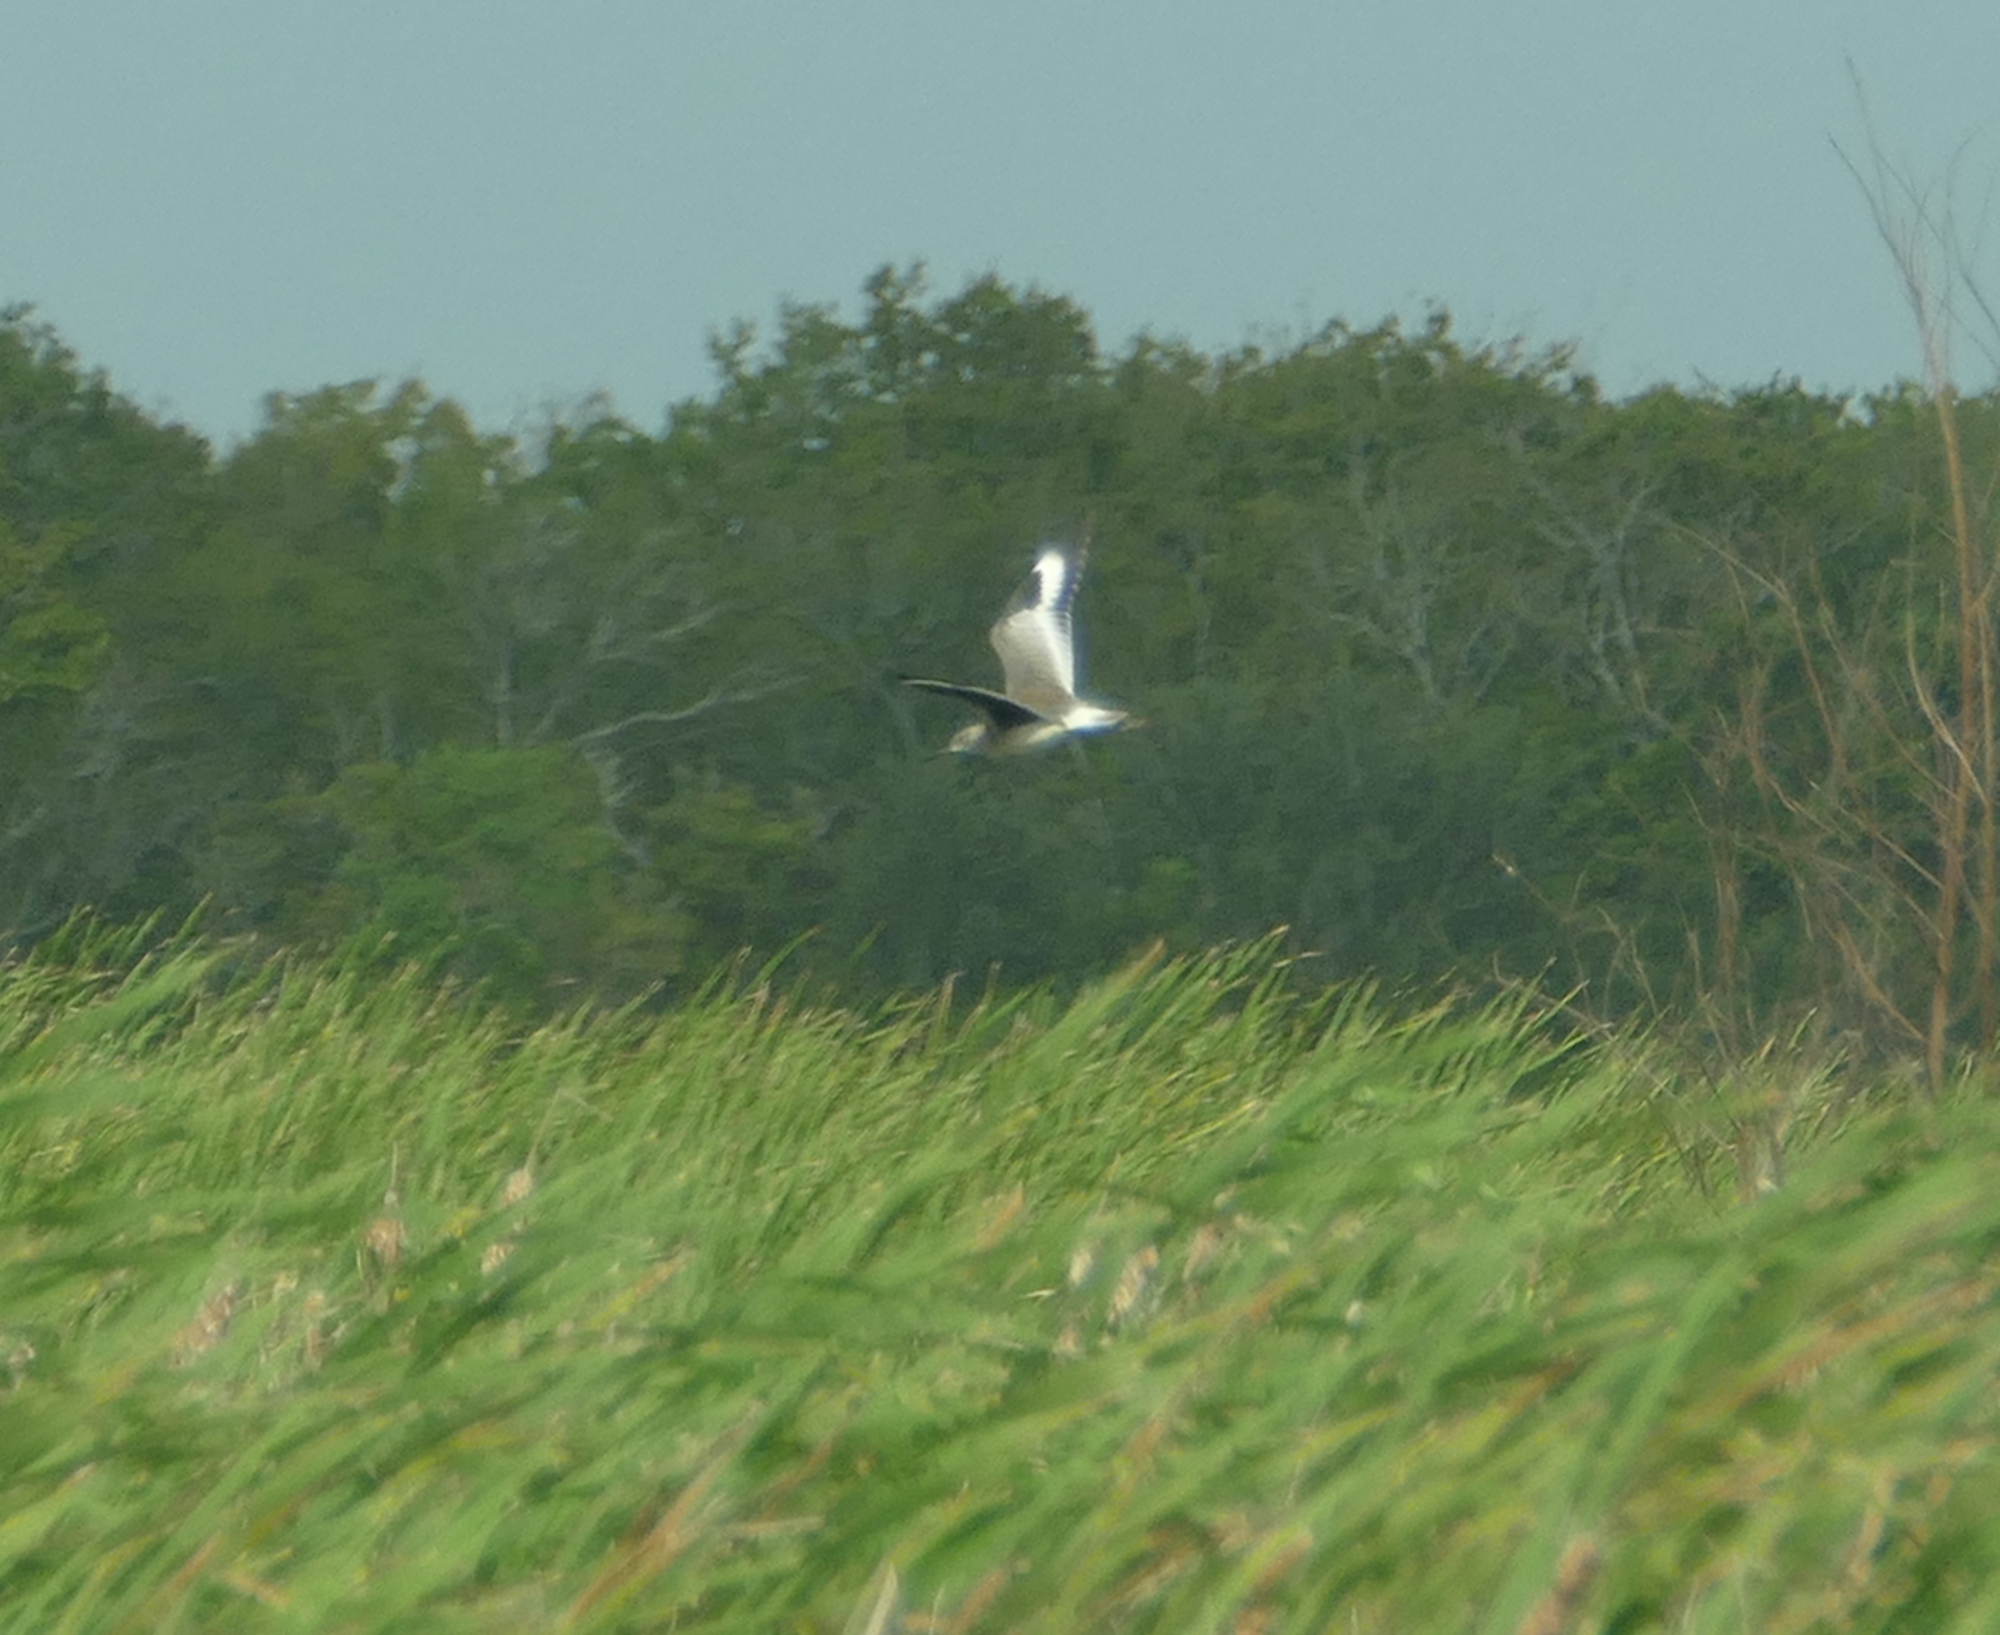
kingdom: Animalia
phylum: Chordata
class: Aves
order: Charadriiformes
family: Scolopacidae
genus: Tringa
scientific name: Tringa semipalmata
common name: Willet
